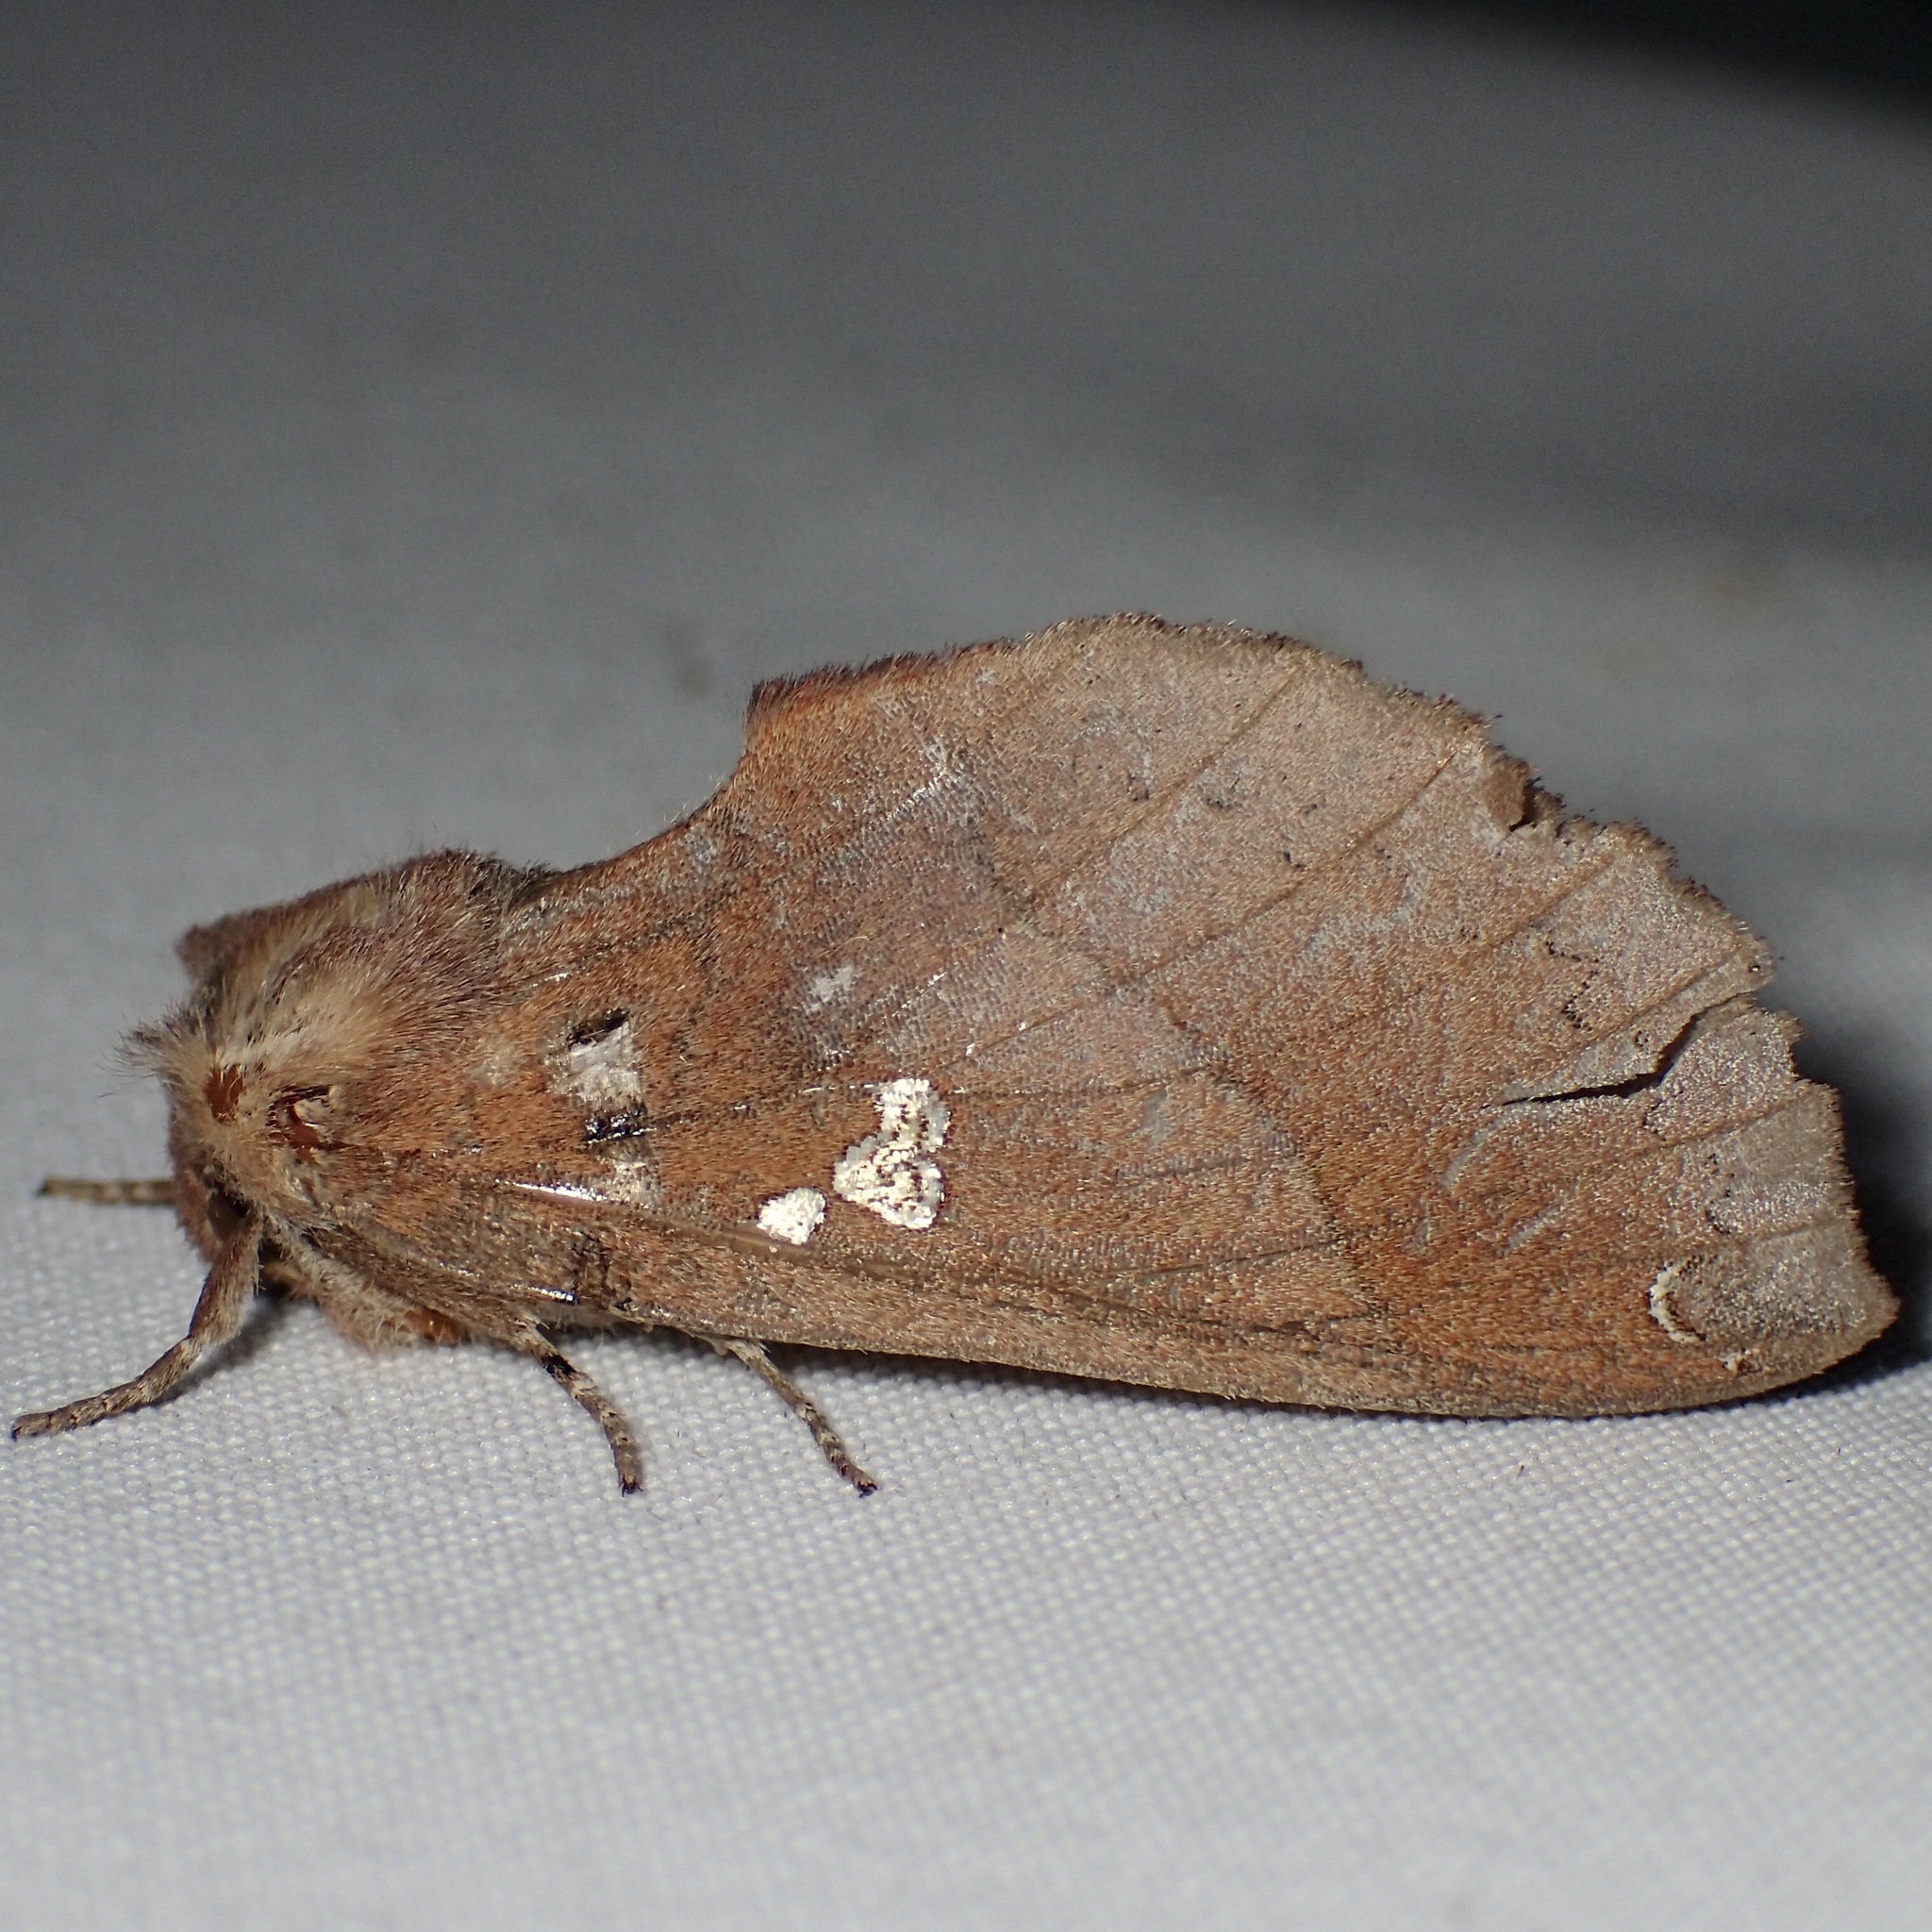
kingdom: Animalia
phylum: Arthropoda
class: Insecta
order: Lepidoptera
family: Notodontidae
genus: Pseudhapigia
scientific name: Pseudhapigia brunnea
